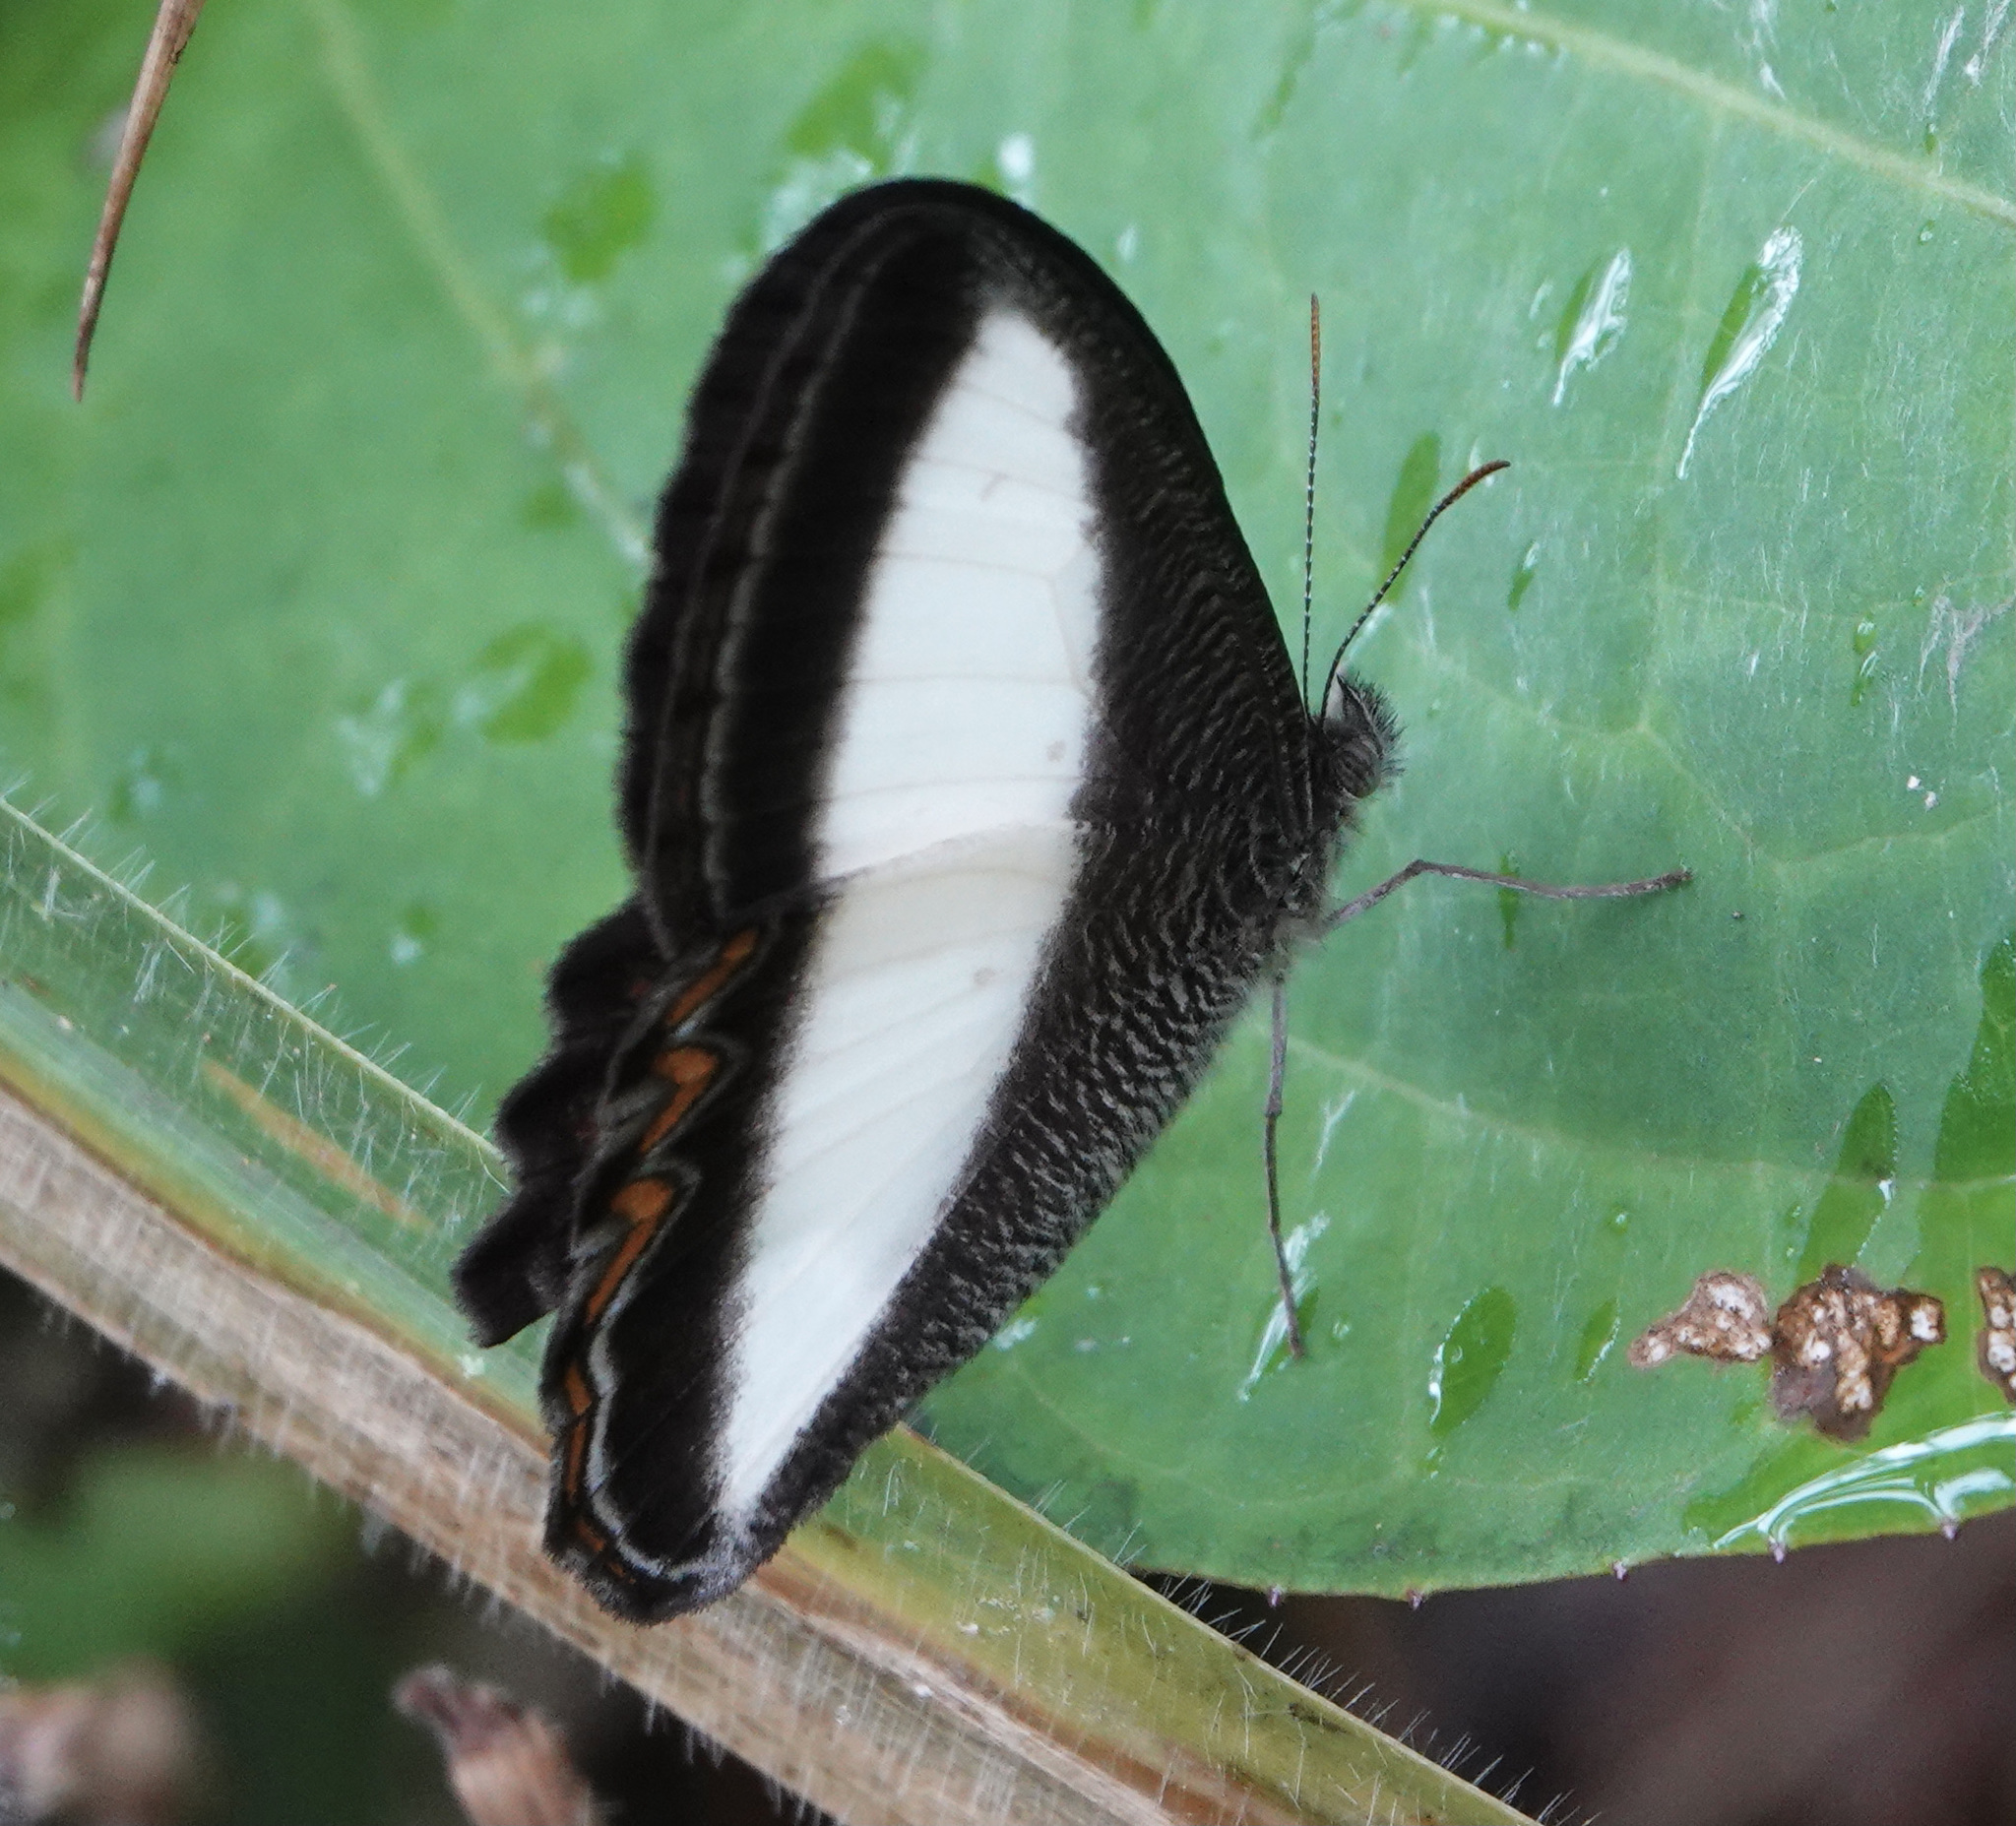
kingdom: Animalia
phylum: Arthropoda
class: Insecta
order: Lepidoptera
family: Nymphalidae
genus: Oressinoma
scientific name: Oressinoma typhla
